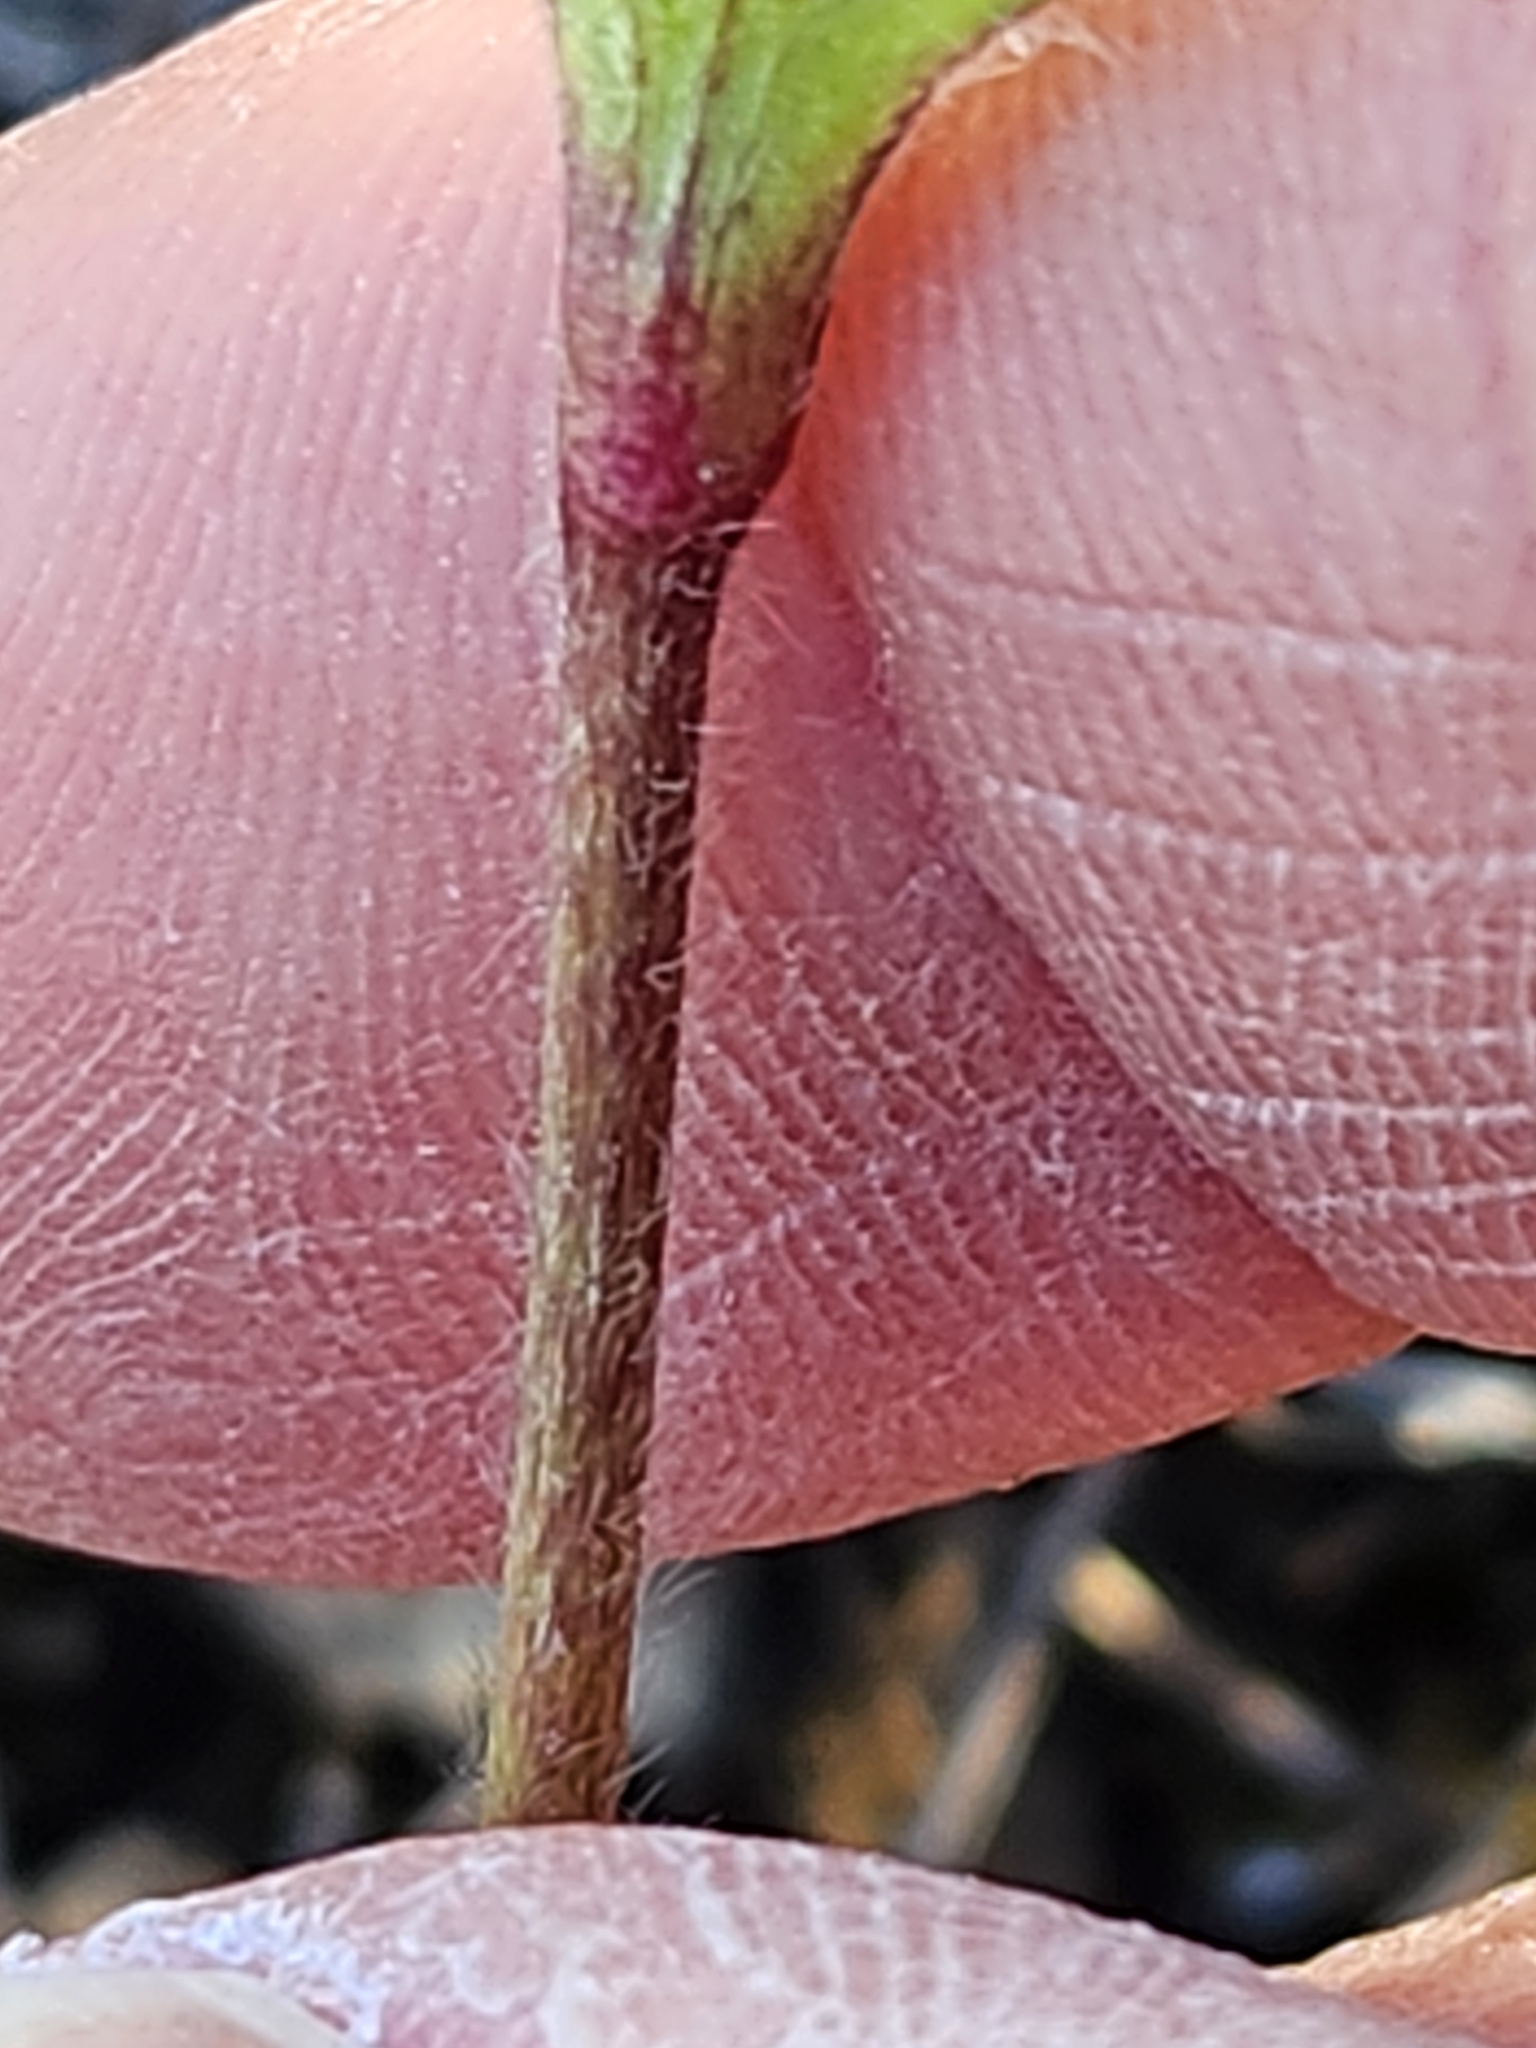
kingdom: Plantae
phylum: Tracheophyta
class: Magnoliopsida
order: Ranunculales
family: Ranunculaceae
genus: Anemone
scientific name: Anemone berlandieri
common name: Ten-petal anemone
